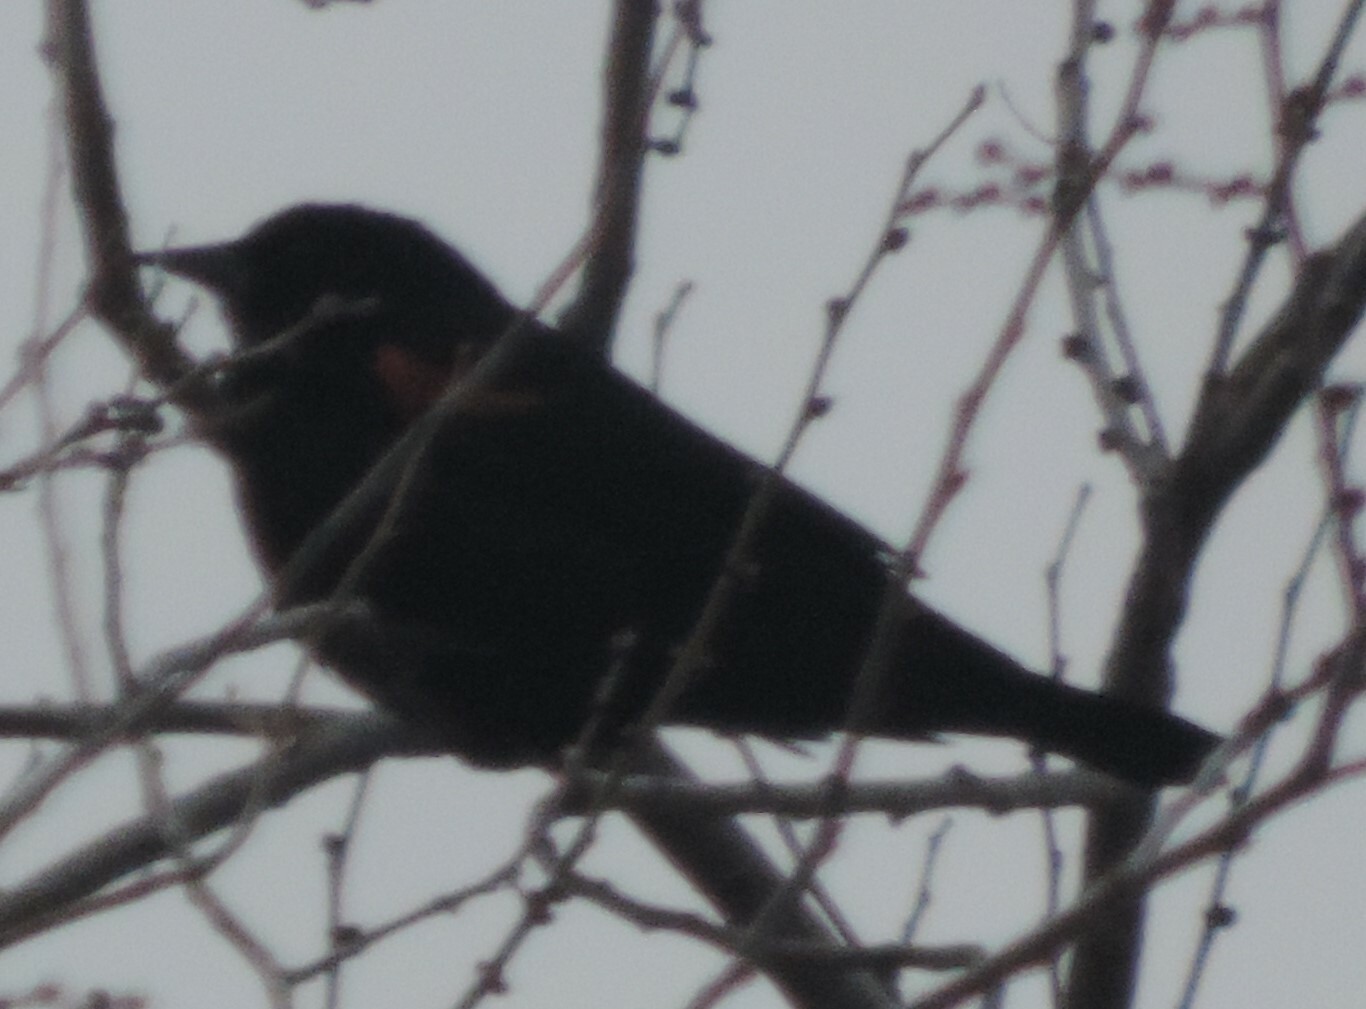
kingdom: Animalia
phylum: Chordata
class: Aves
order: Passeriformes
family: Icteridae
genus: Agelaius
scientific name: Agelaius phoeniceus
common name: Red-winged blackbird
